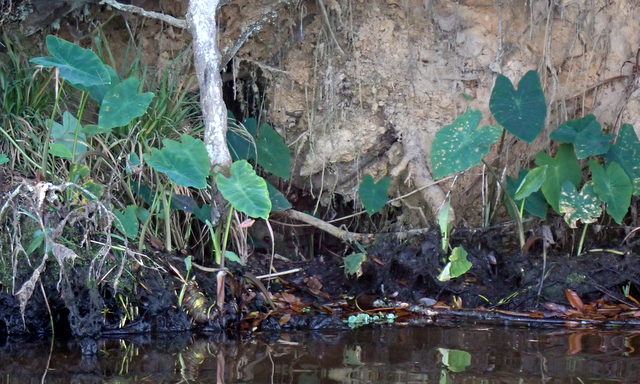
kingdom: Plantae
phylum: Tracheophyta
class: Liliopsida
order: Alismatales
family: Araceae
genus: Colocasia
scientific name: Colocasia esculenta
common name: Taro
